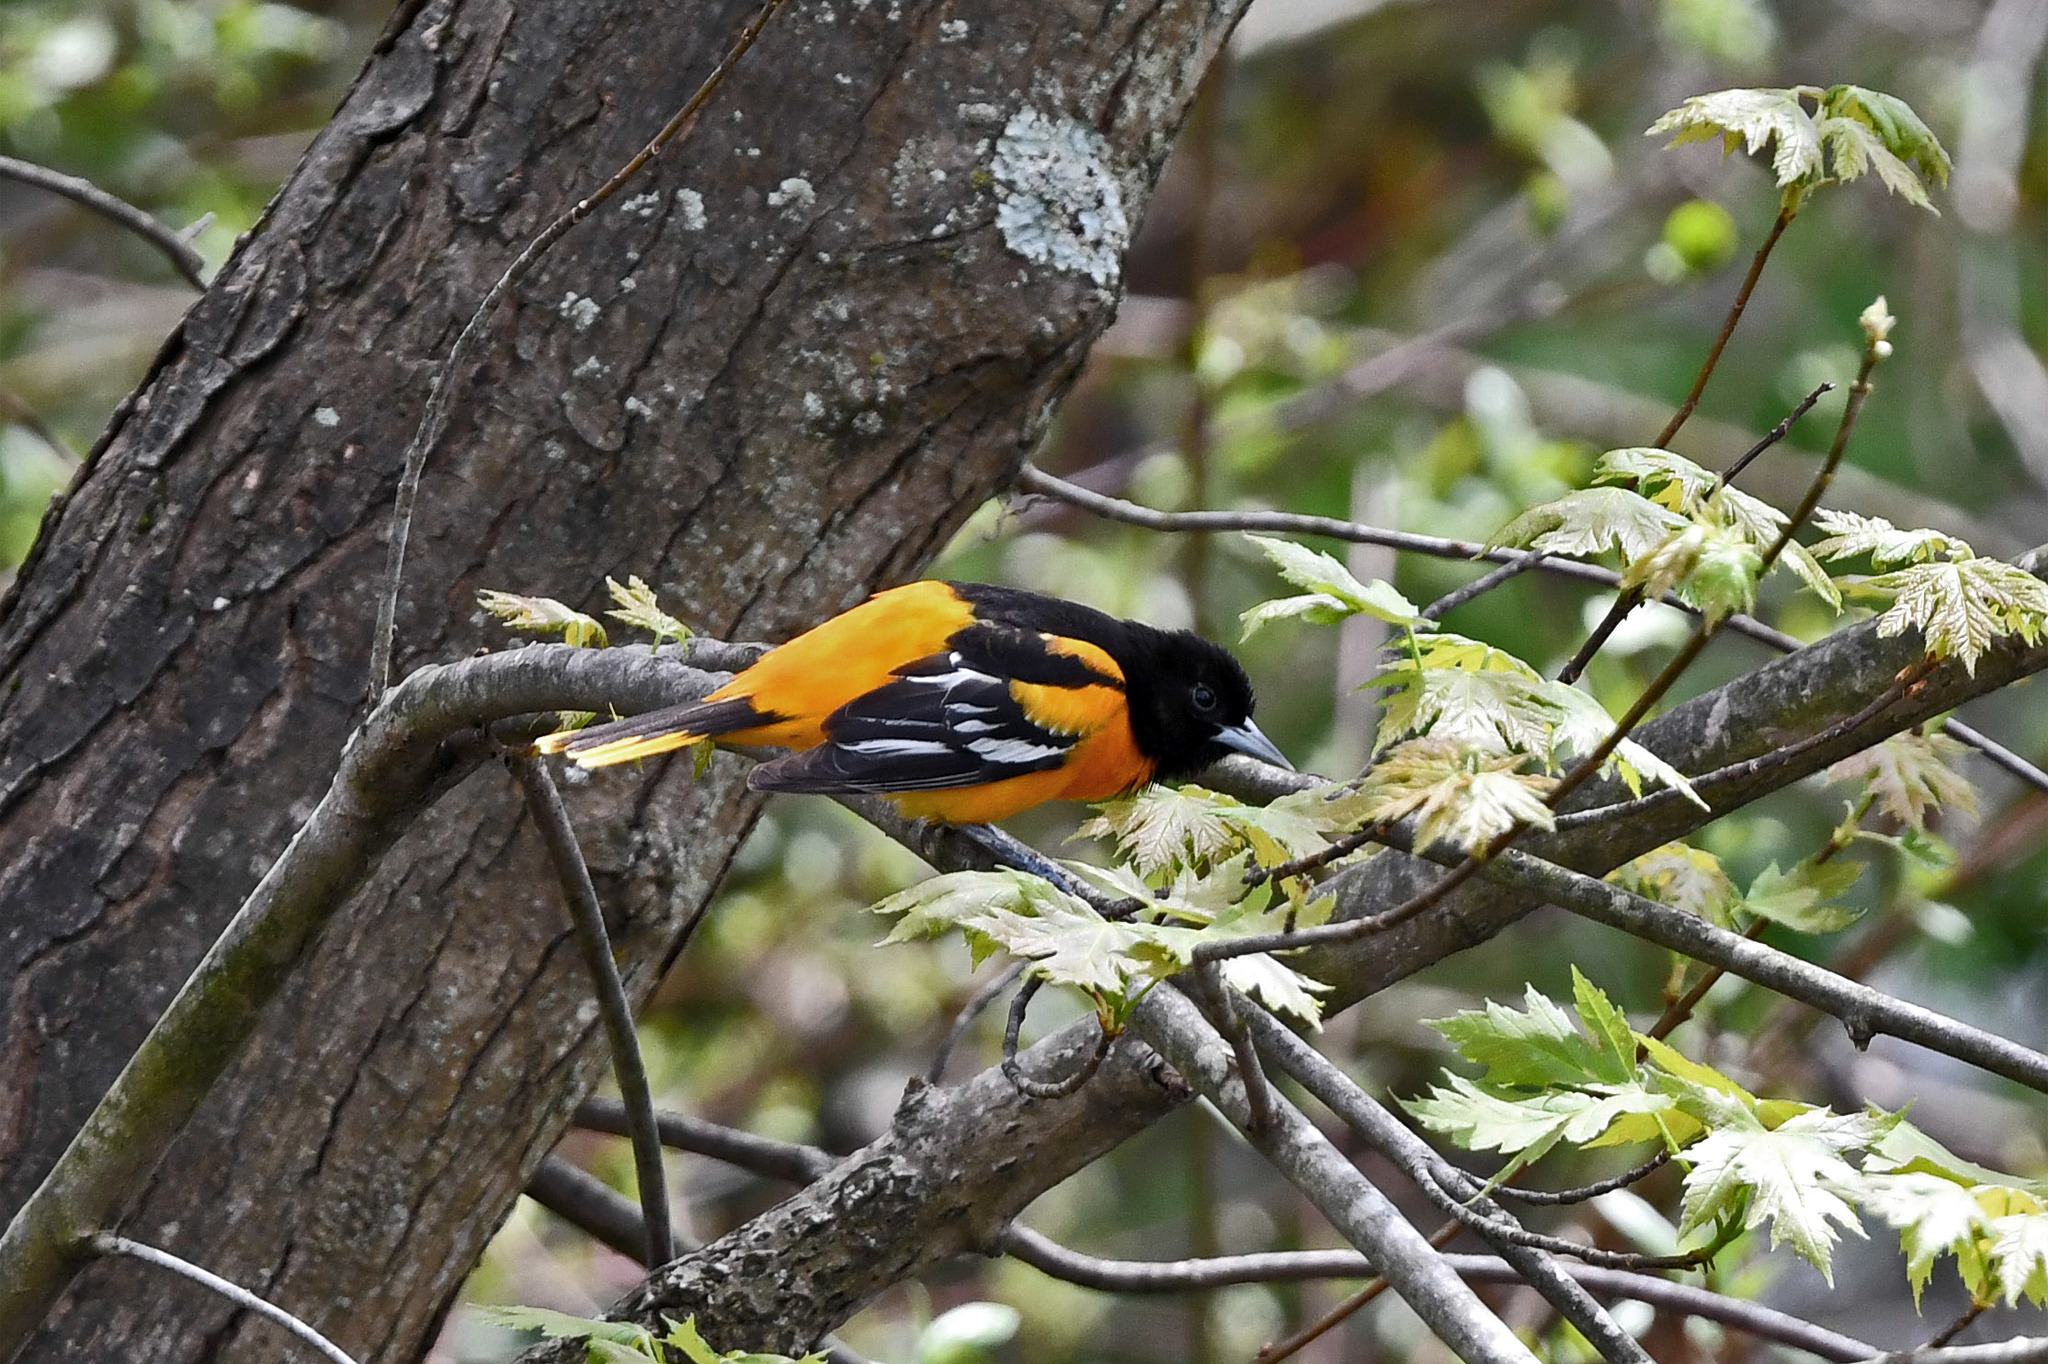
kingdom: Animalia
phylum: Chordata
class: Aves
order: Passeriformes
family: Icteridae
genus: Icterus
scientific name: Icterus galbula
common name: Baltimore oriole
